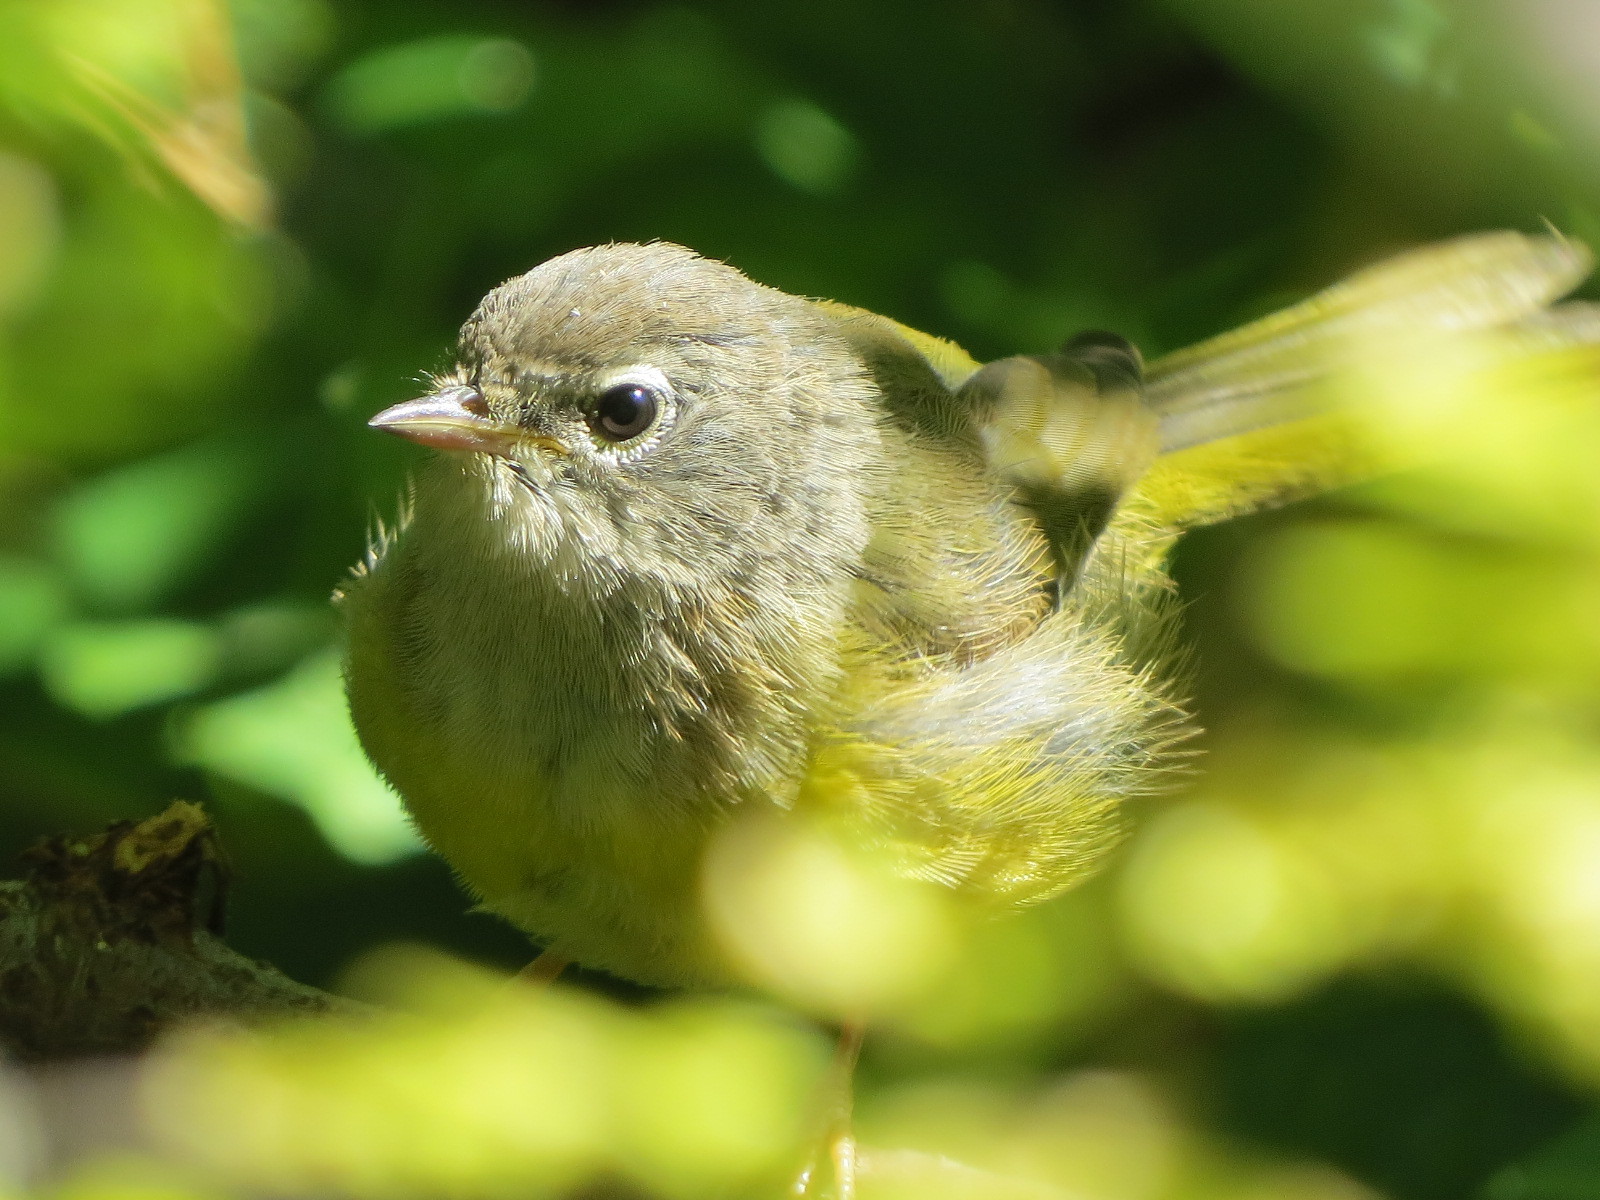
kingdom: Animalia
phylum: Chordata
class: Aves
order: Passeriformes
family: Parulidae
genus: Geothlypis
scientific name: Geothlypis tolmiei
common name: Macgillivray's warbler
